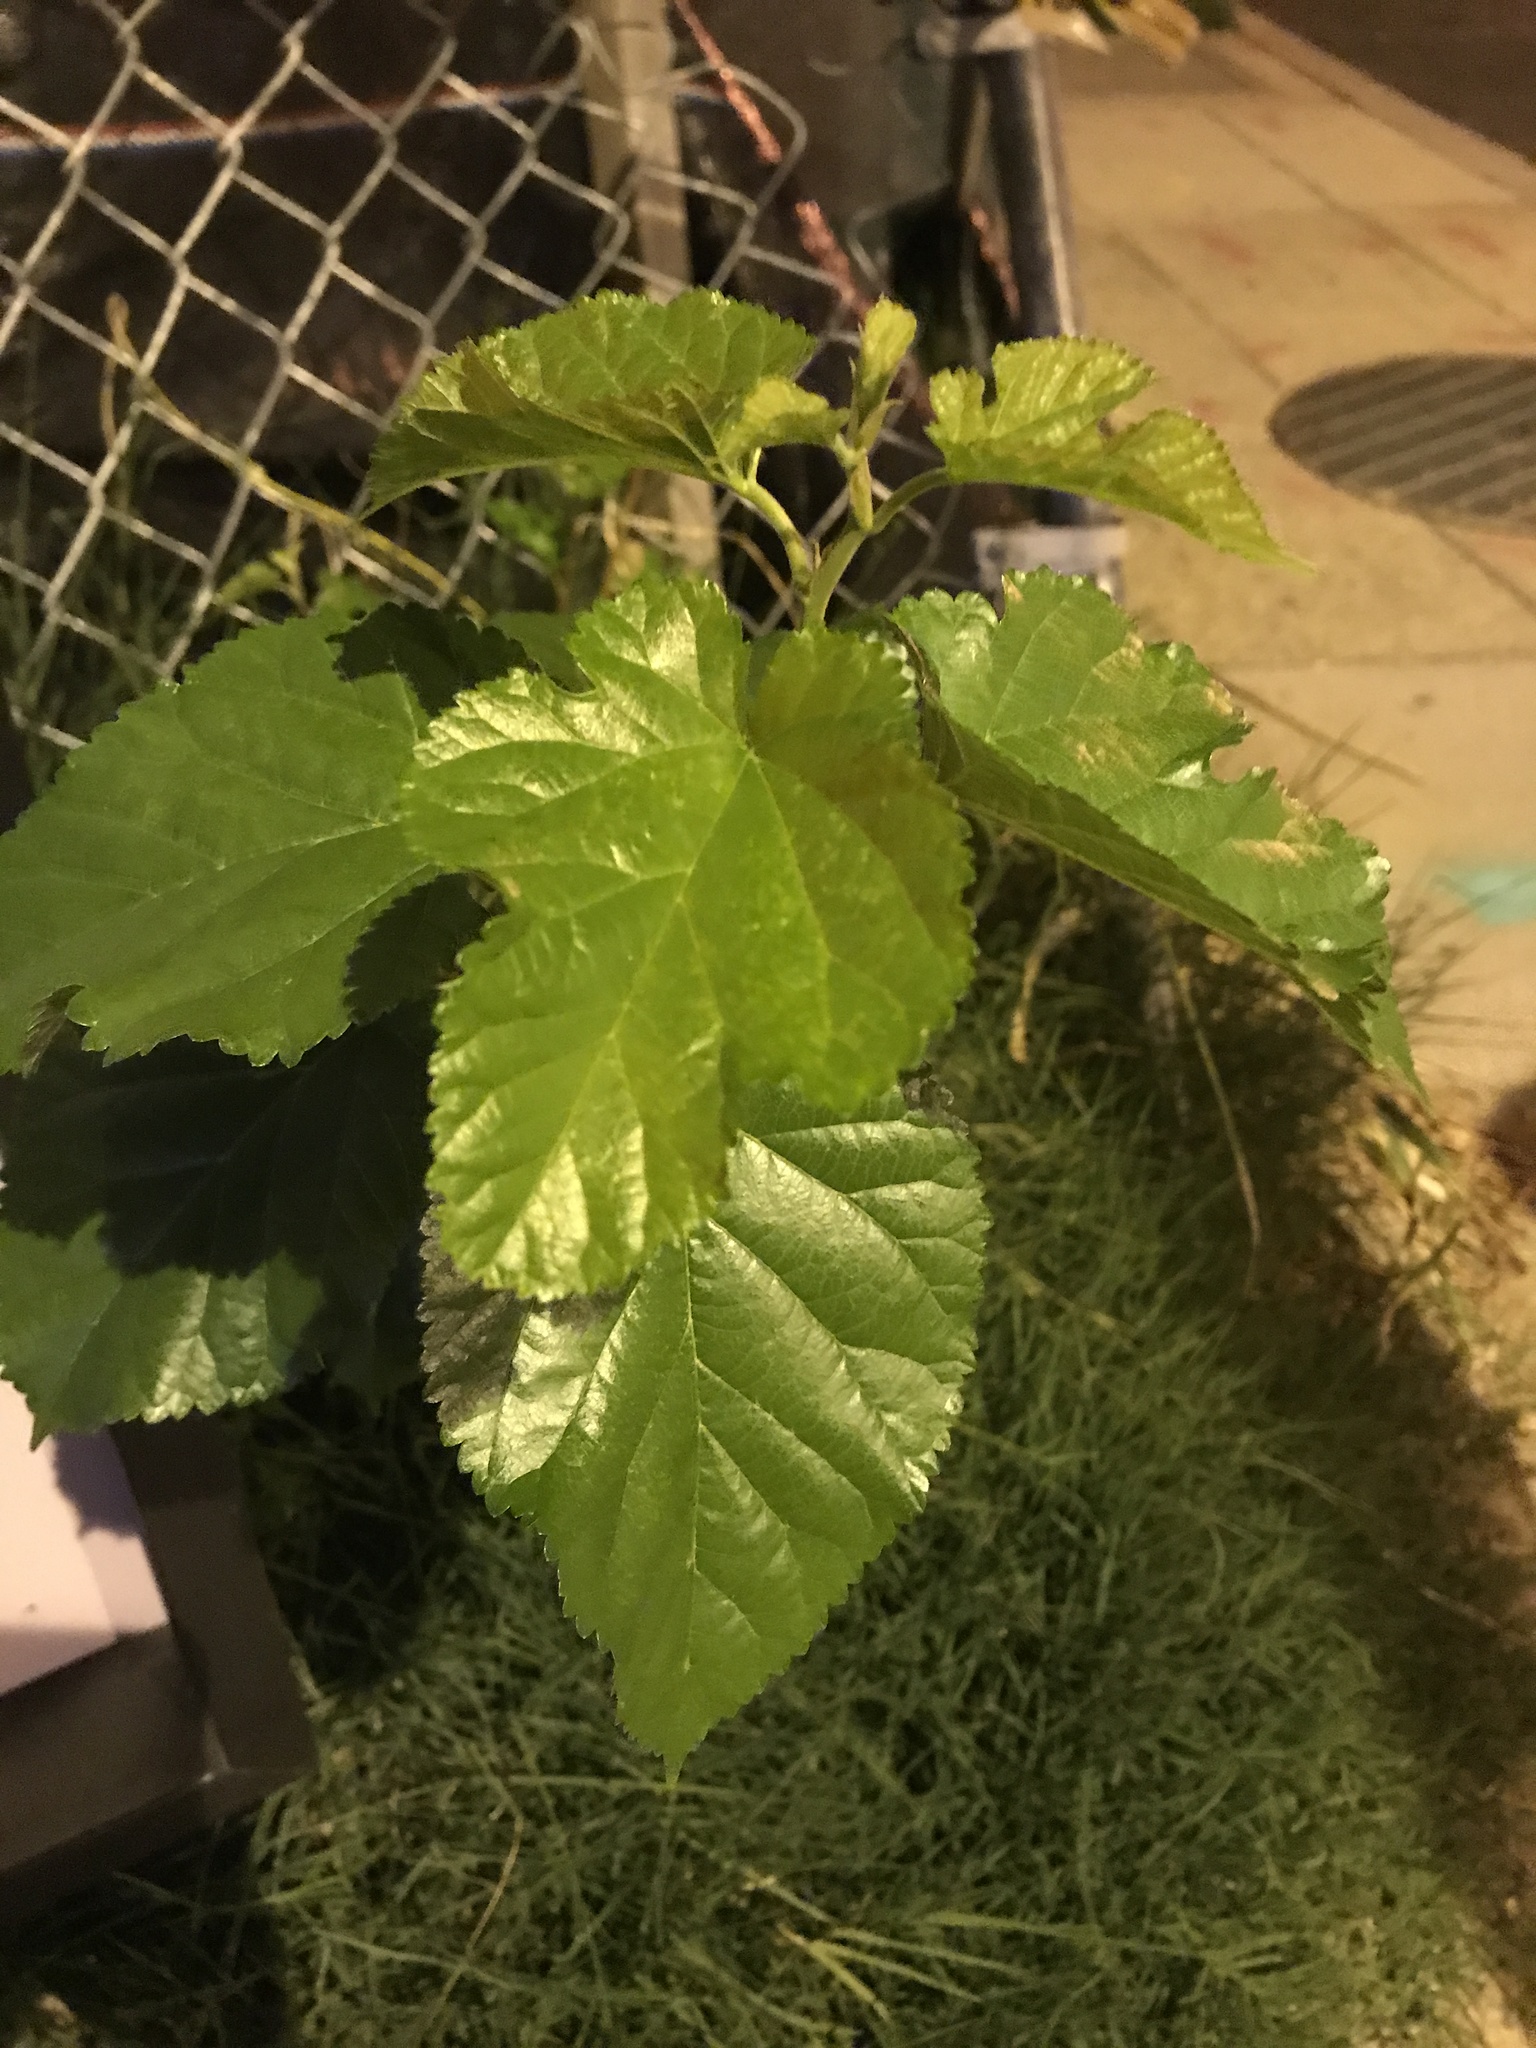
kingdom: Plantae
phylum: Tracheophyta
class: Magnoliopsida
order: Rosales
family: Moraceae
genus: Morus
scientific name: Morus alba
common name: White mulberry
